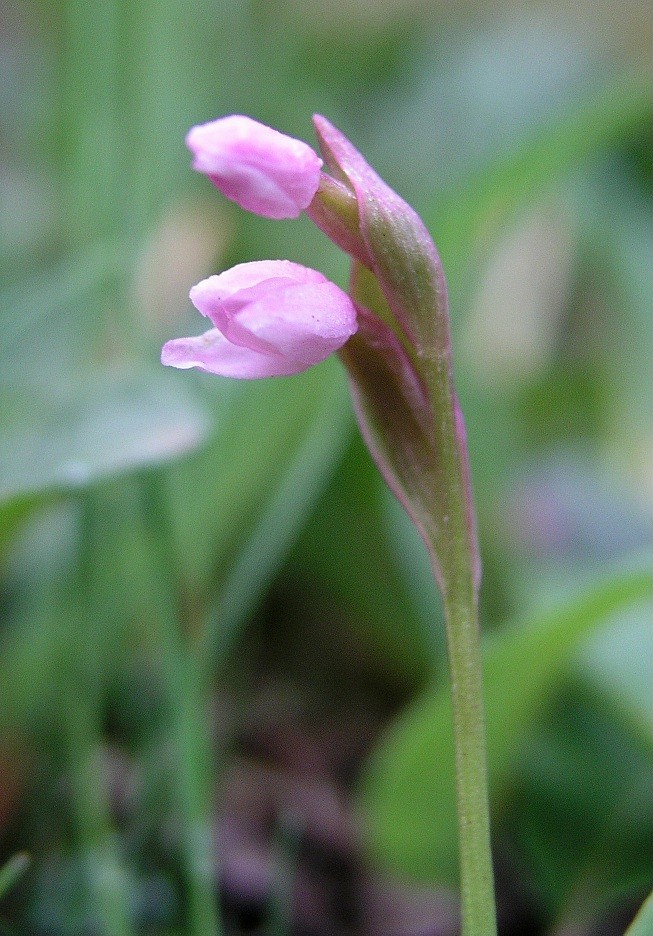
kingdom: Plantae
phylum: Tracheophyta
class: Liliopsida
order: Asparagales
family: Orchidaceae
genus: Galearis
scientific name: Galearis tschiliensis
